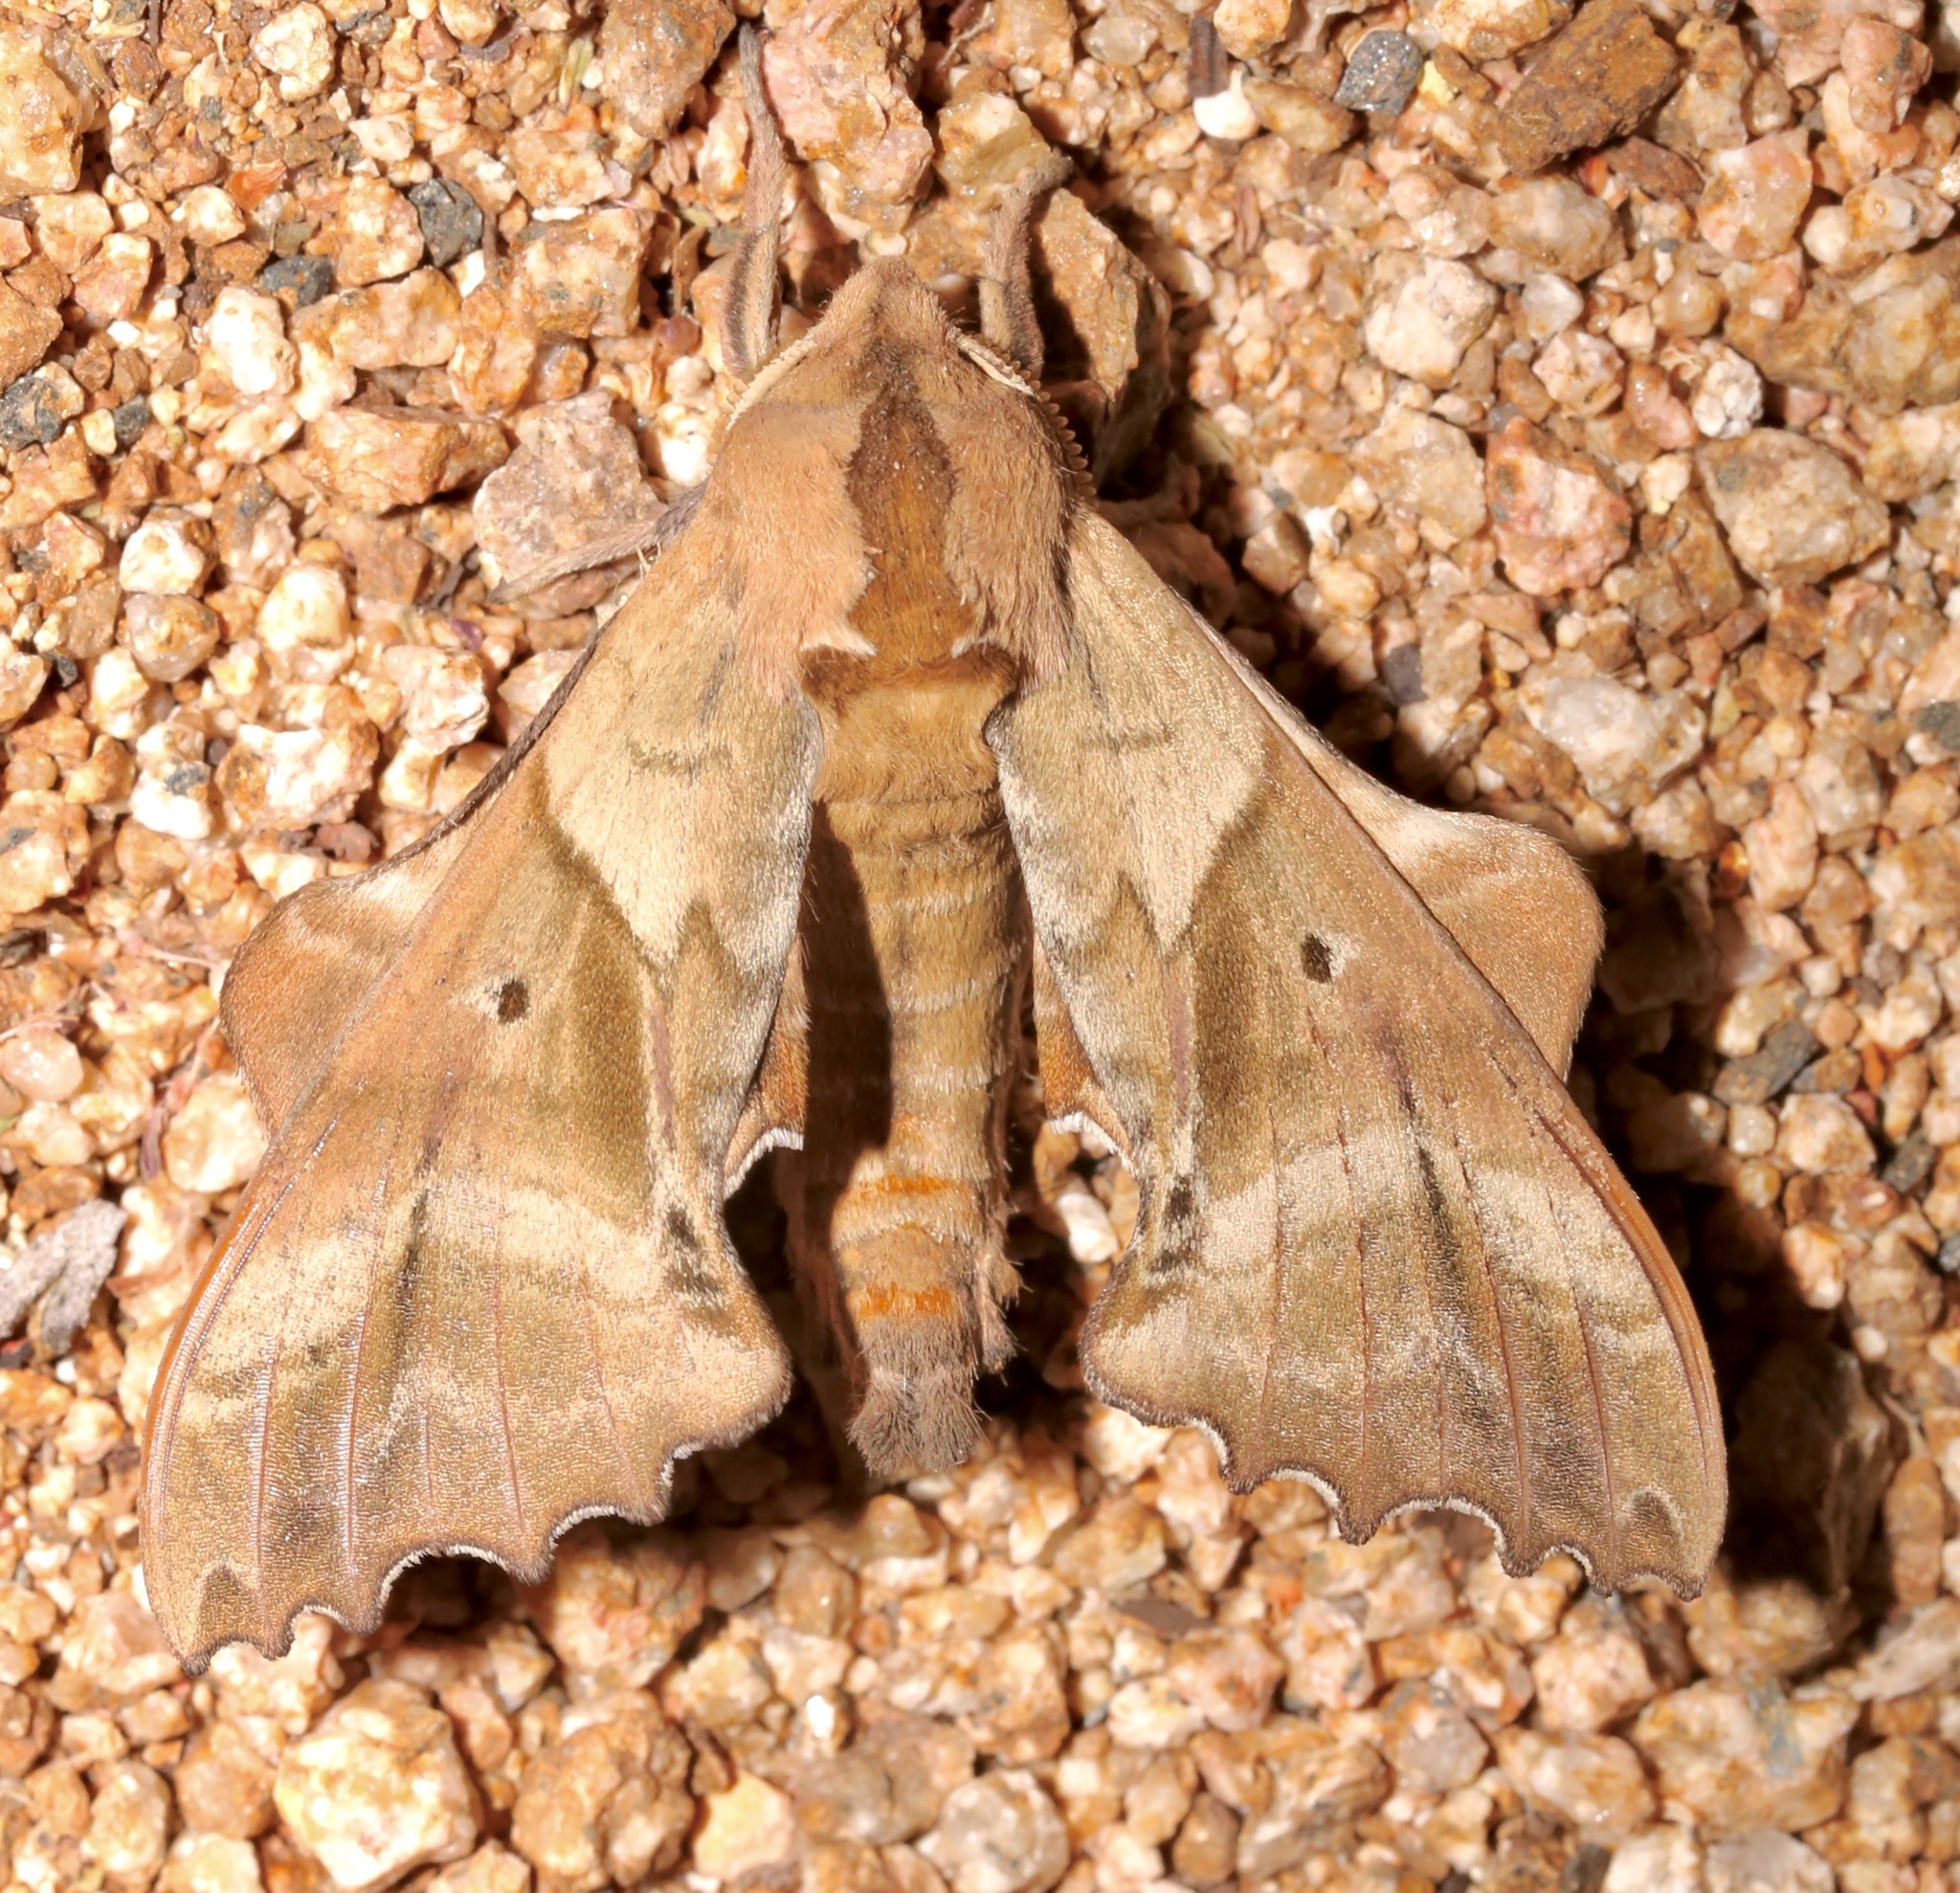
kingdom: Animalia
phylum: Arthropoda
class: Insecta
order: Lepidoptera
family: Sphingidae
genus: Paonias
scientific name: Paonias excaecata
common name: Blind-eyed sphinx
